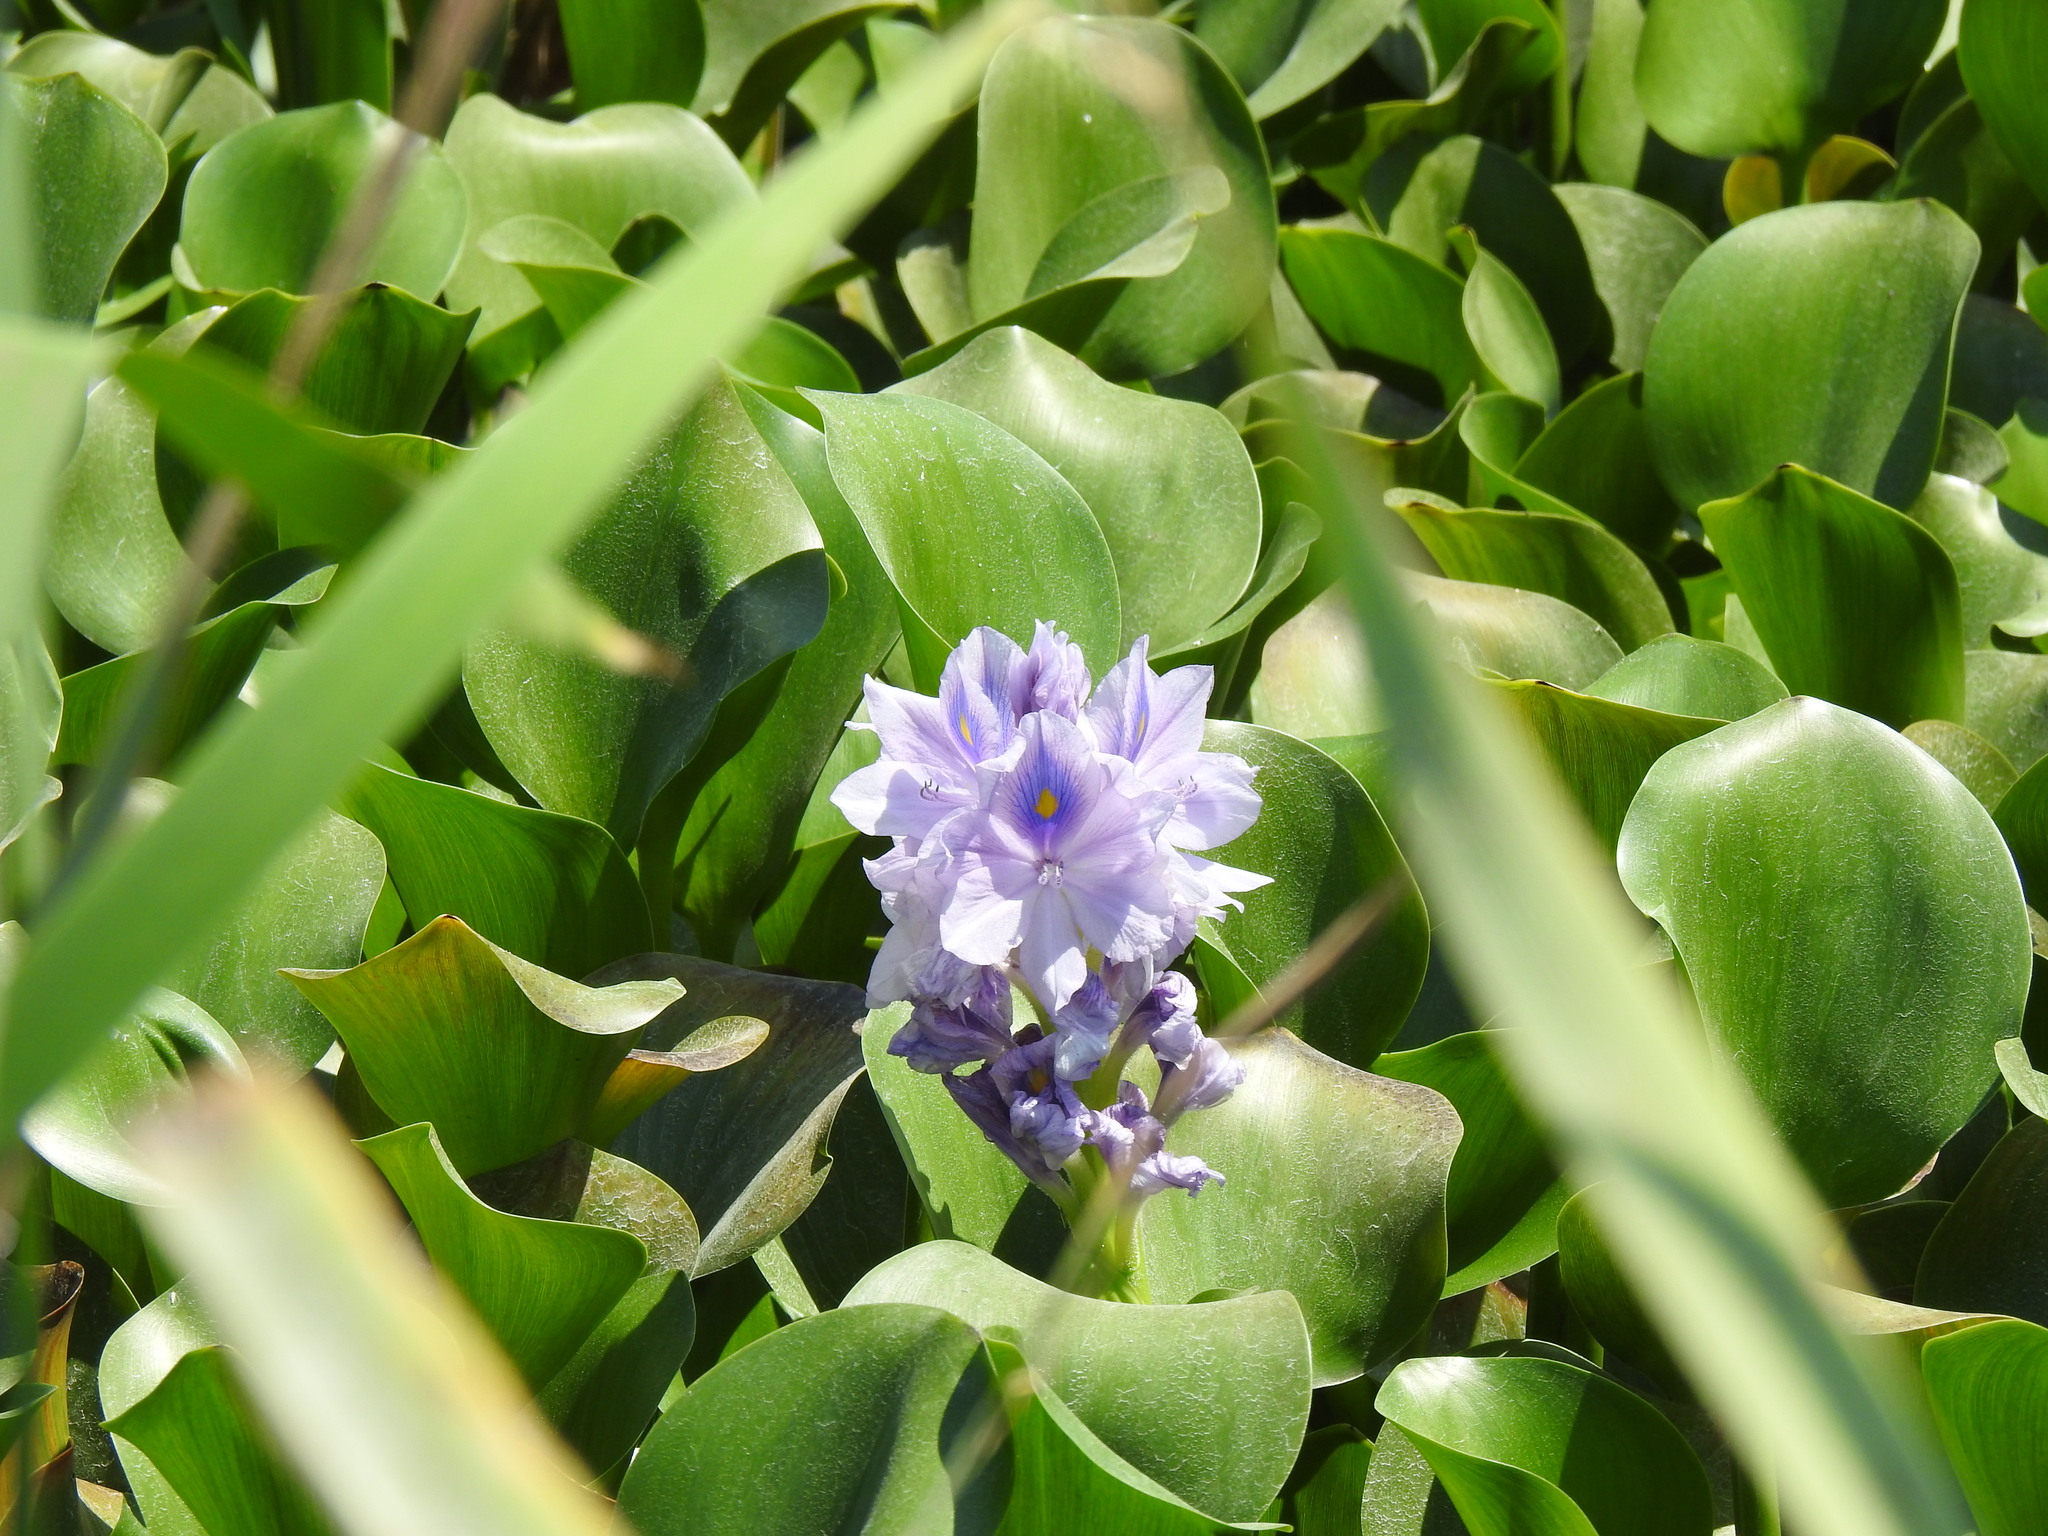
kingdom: Plantae
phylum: Tracheophyta
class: Liliopsida
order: Commelinales
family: Pontederiaceae
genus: Pontederia
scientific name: Pontederia crassipes
